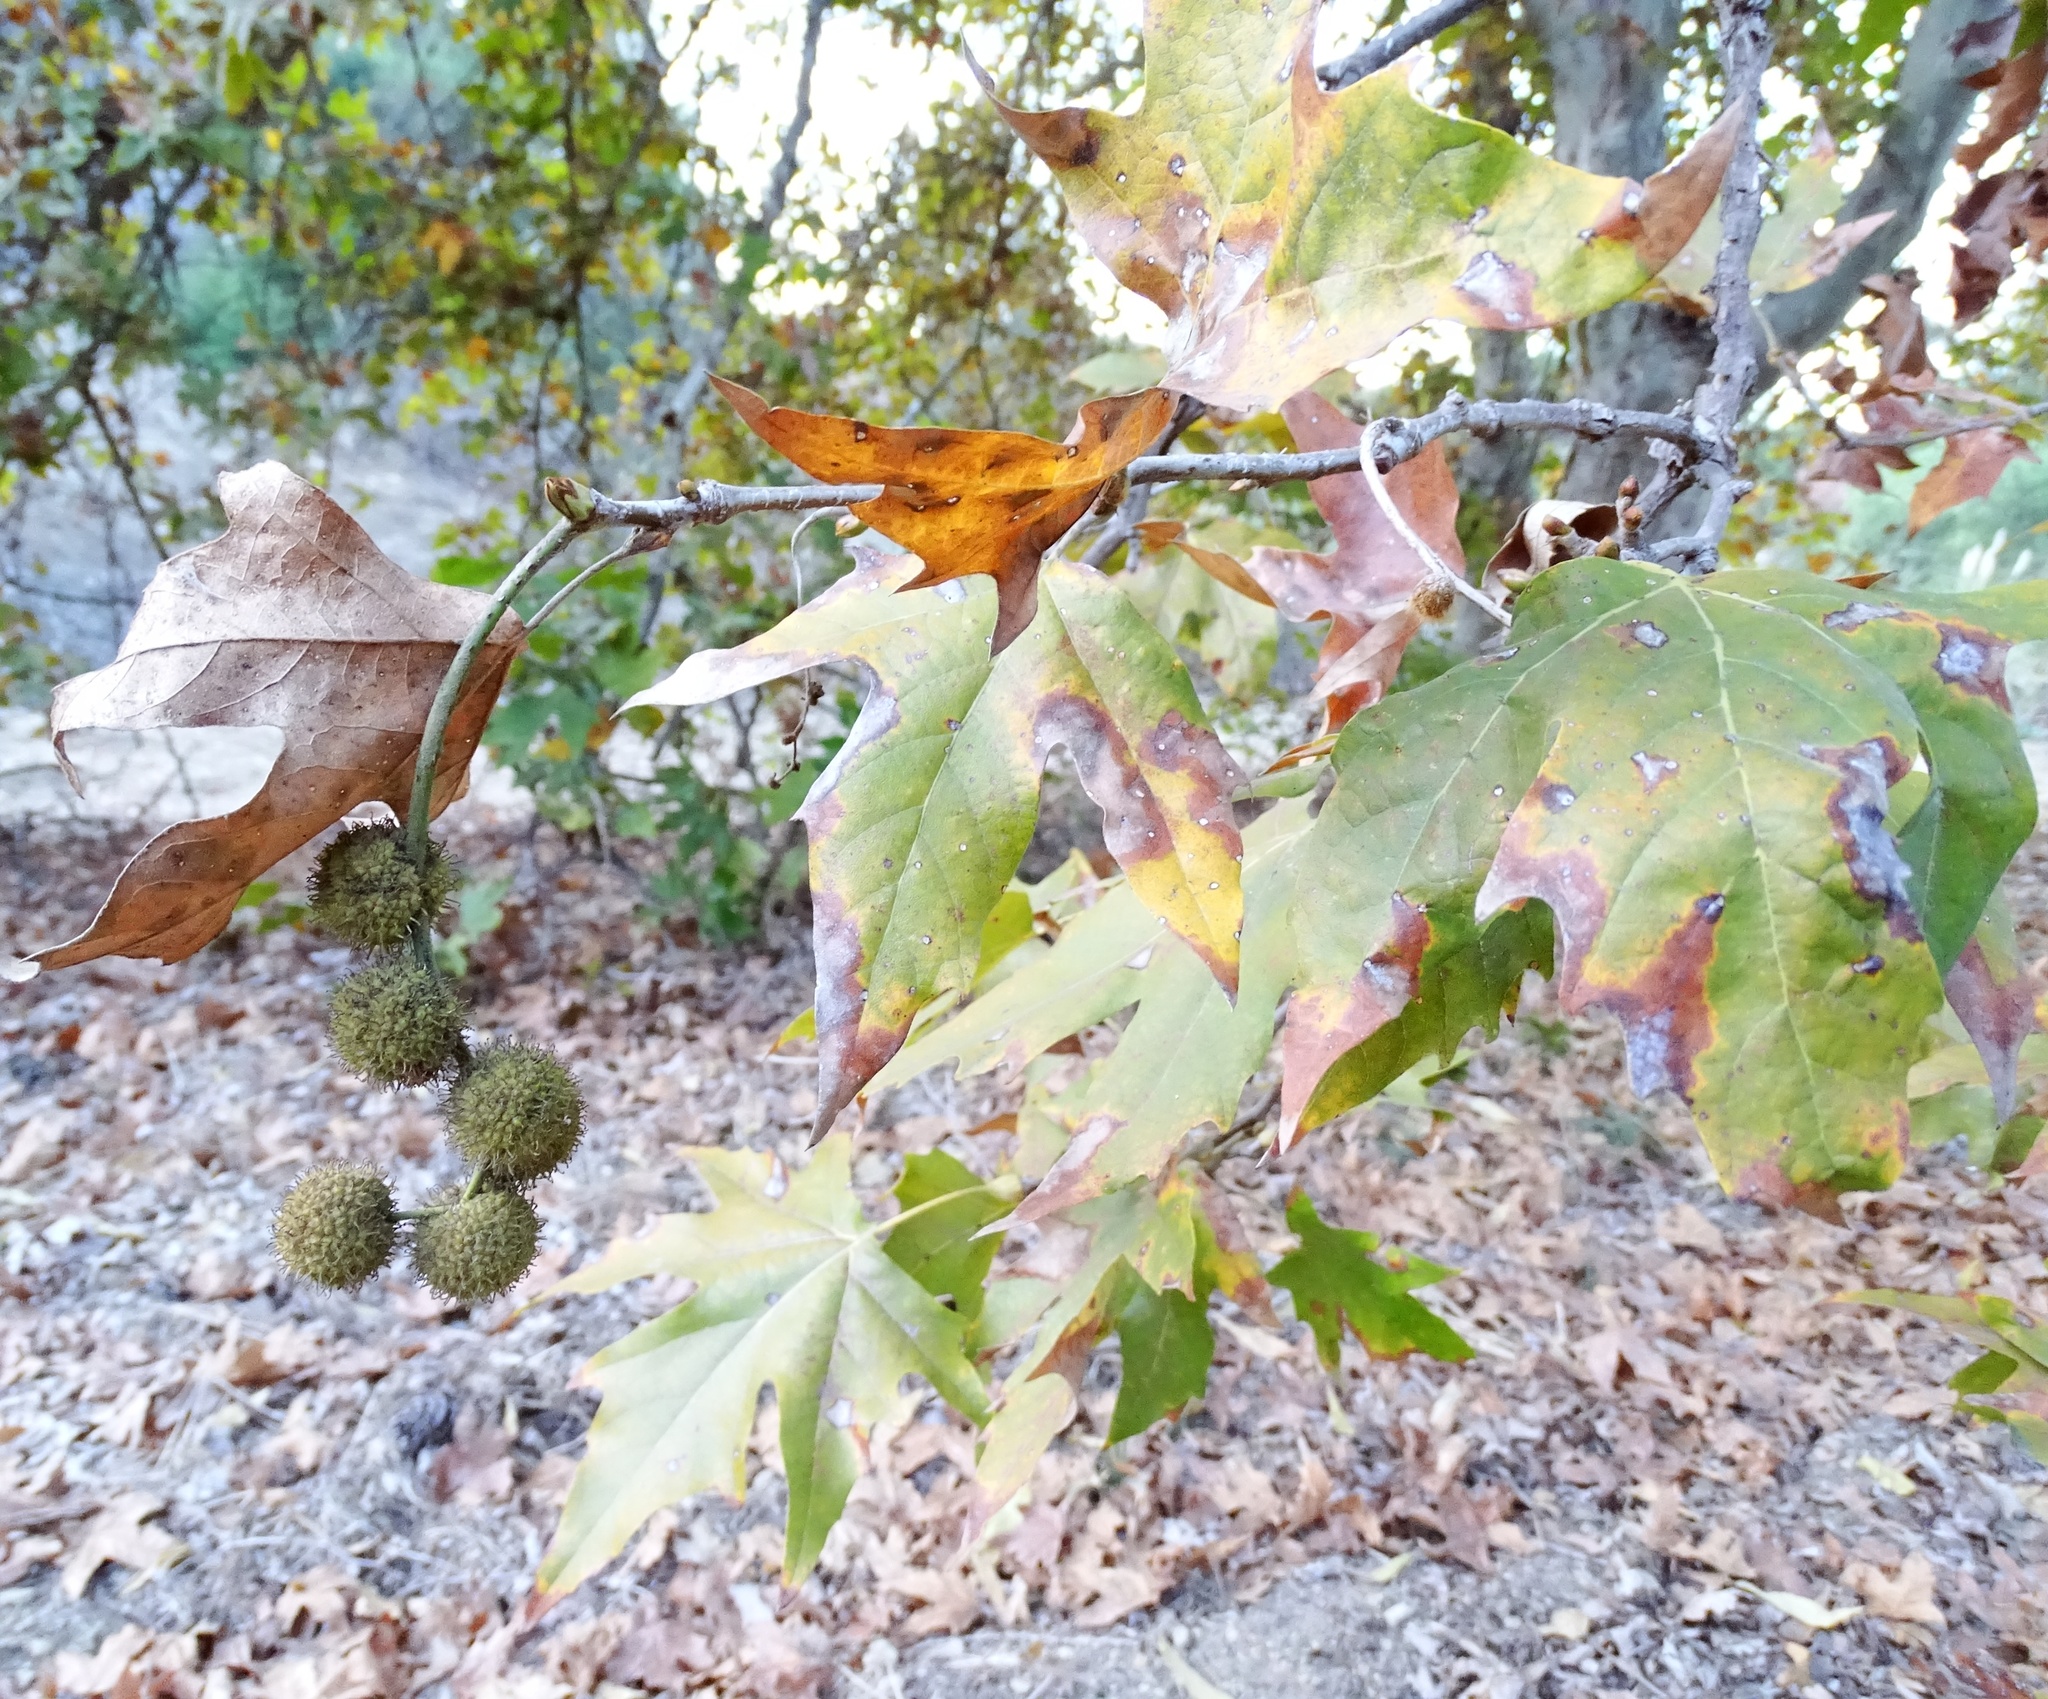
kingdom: Plantae
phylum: Tracheophyta
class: Magnoliopsida
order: Proteales
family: Platanaceae
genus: Platanus
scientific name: Platanus racemosa
